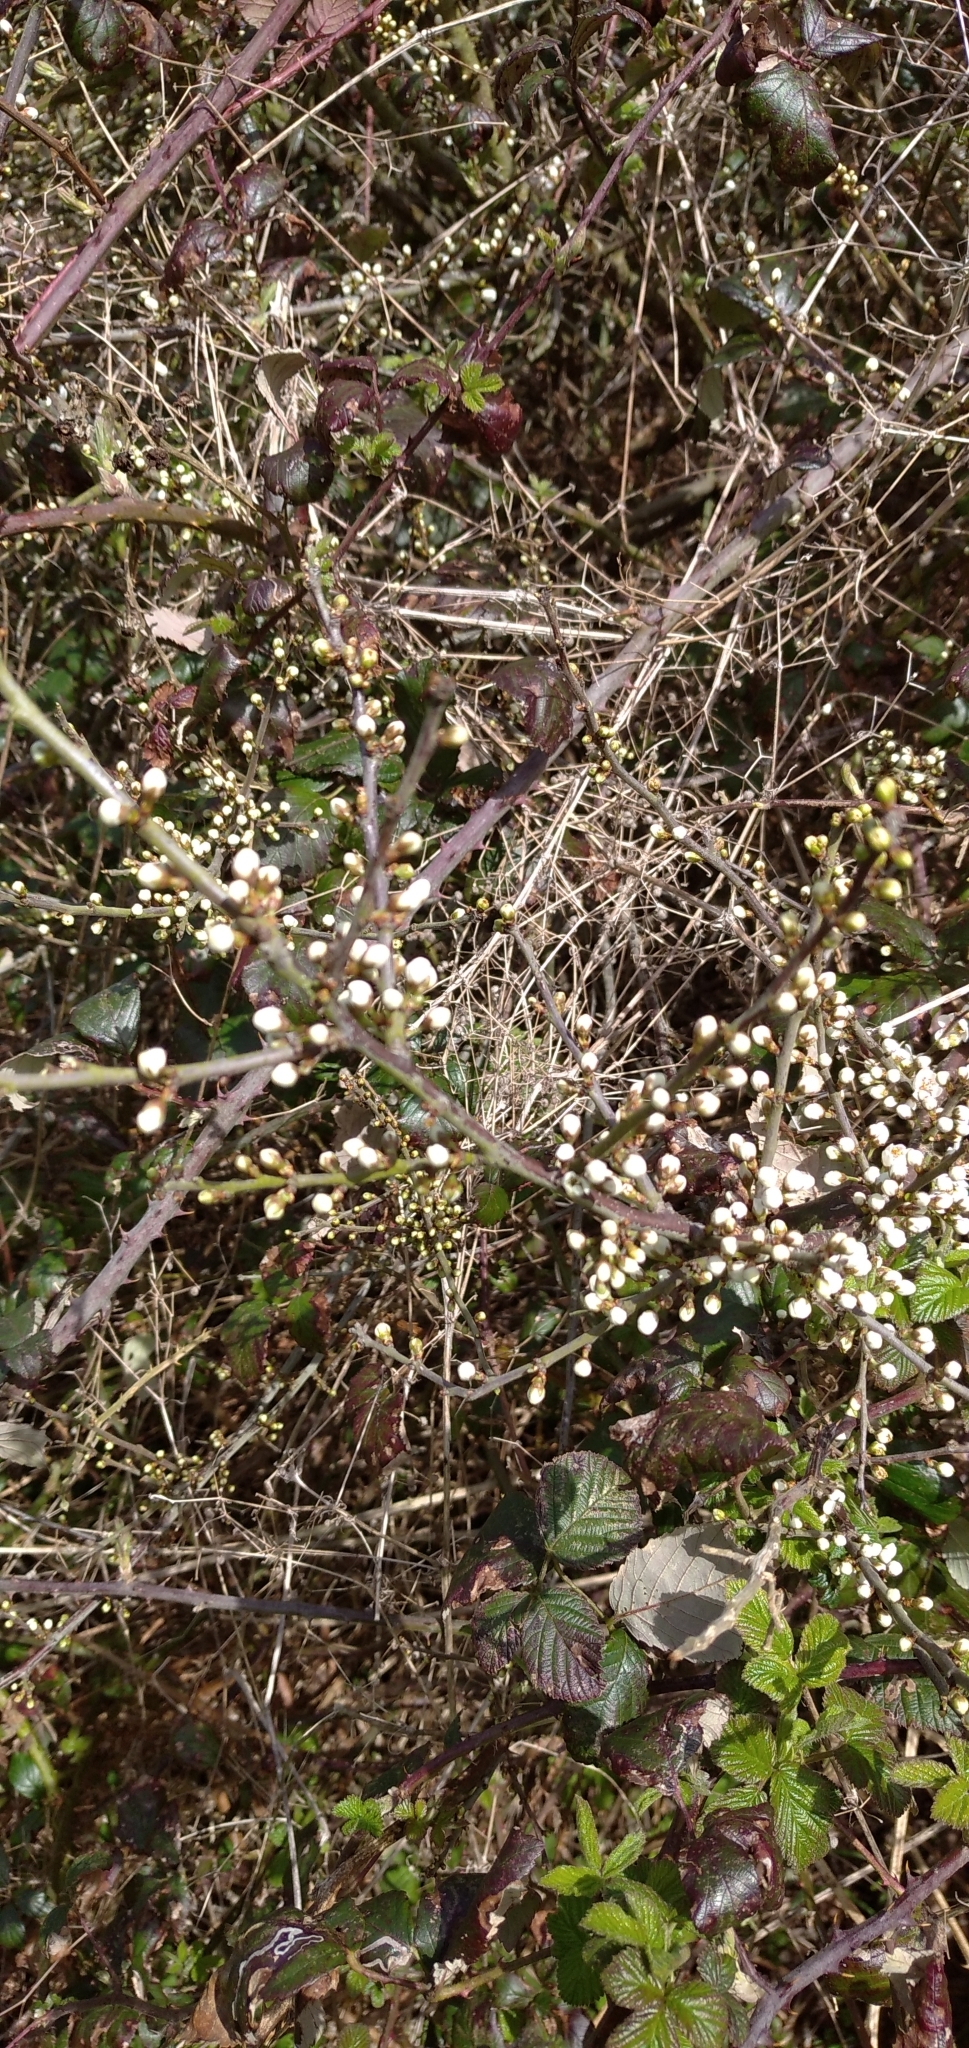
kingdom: Plantae
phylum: Tracheophyta
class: Magnoliopsida
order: Rosales
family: Rosaceae
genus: Prunus
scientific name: Prunus spinosa
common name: Blackthorn
